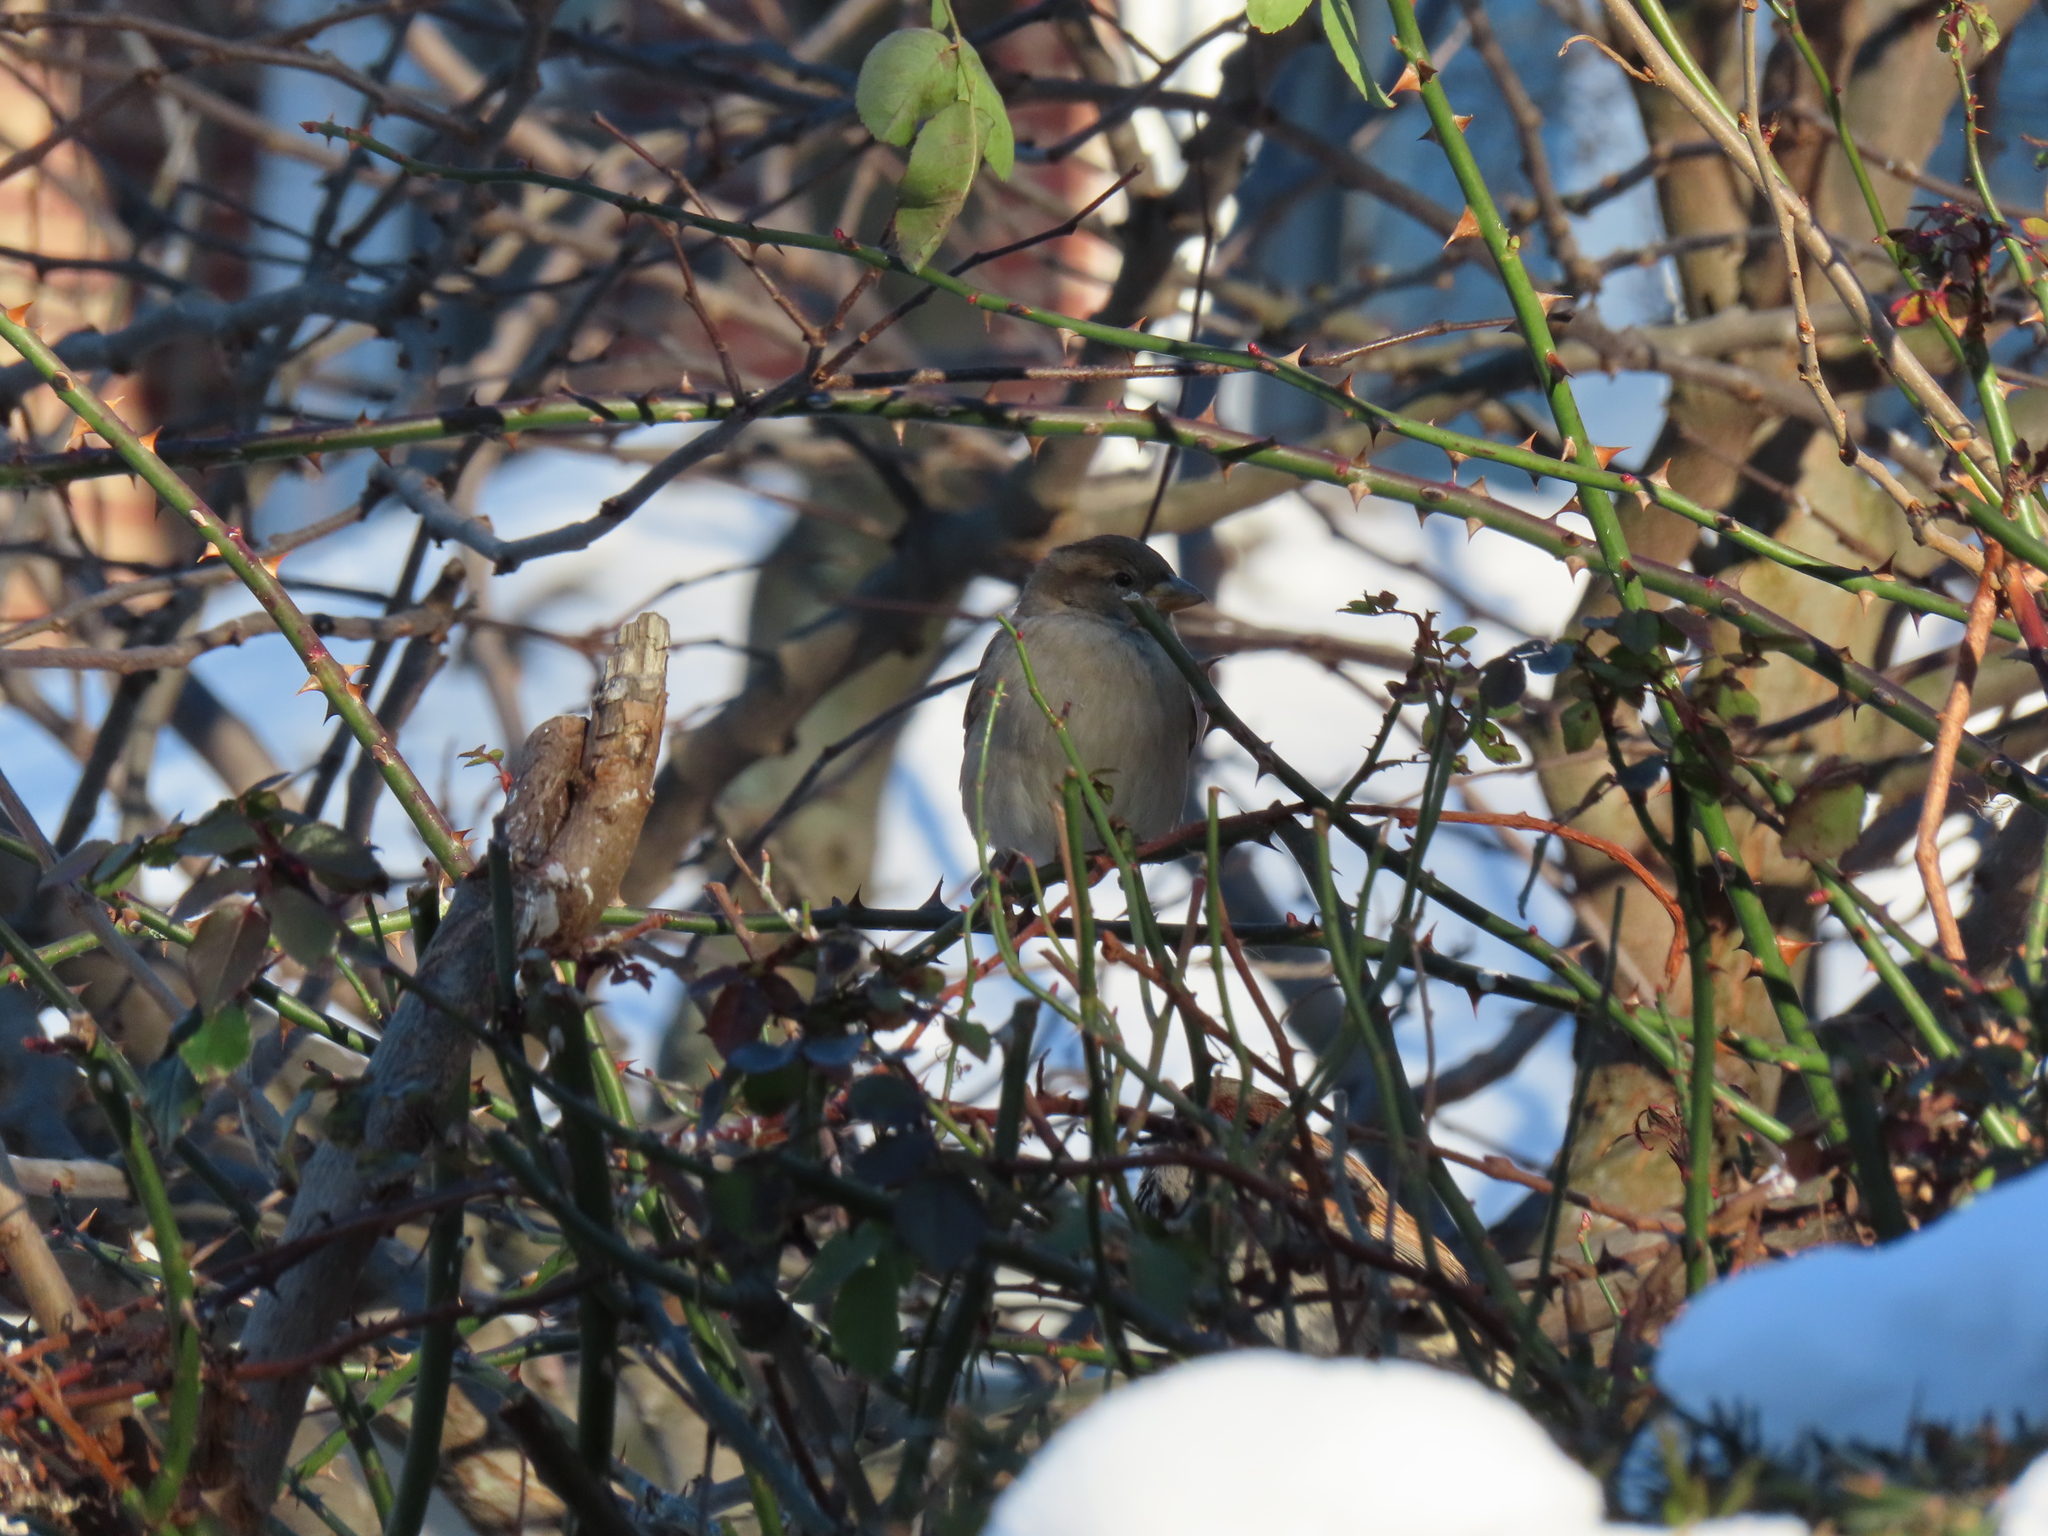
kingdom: Animalia
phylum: Chordata
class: Aves
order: Passeriformes
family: Passeridae
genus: Passer
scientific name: Passer domesticus
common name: House sparrow
